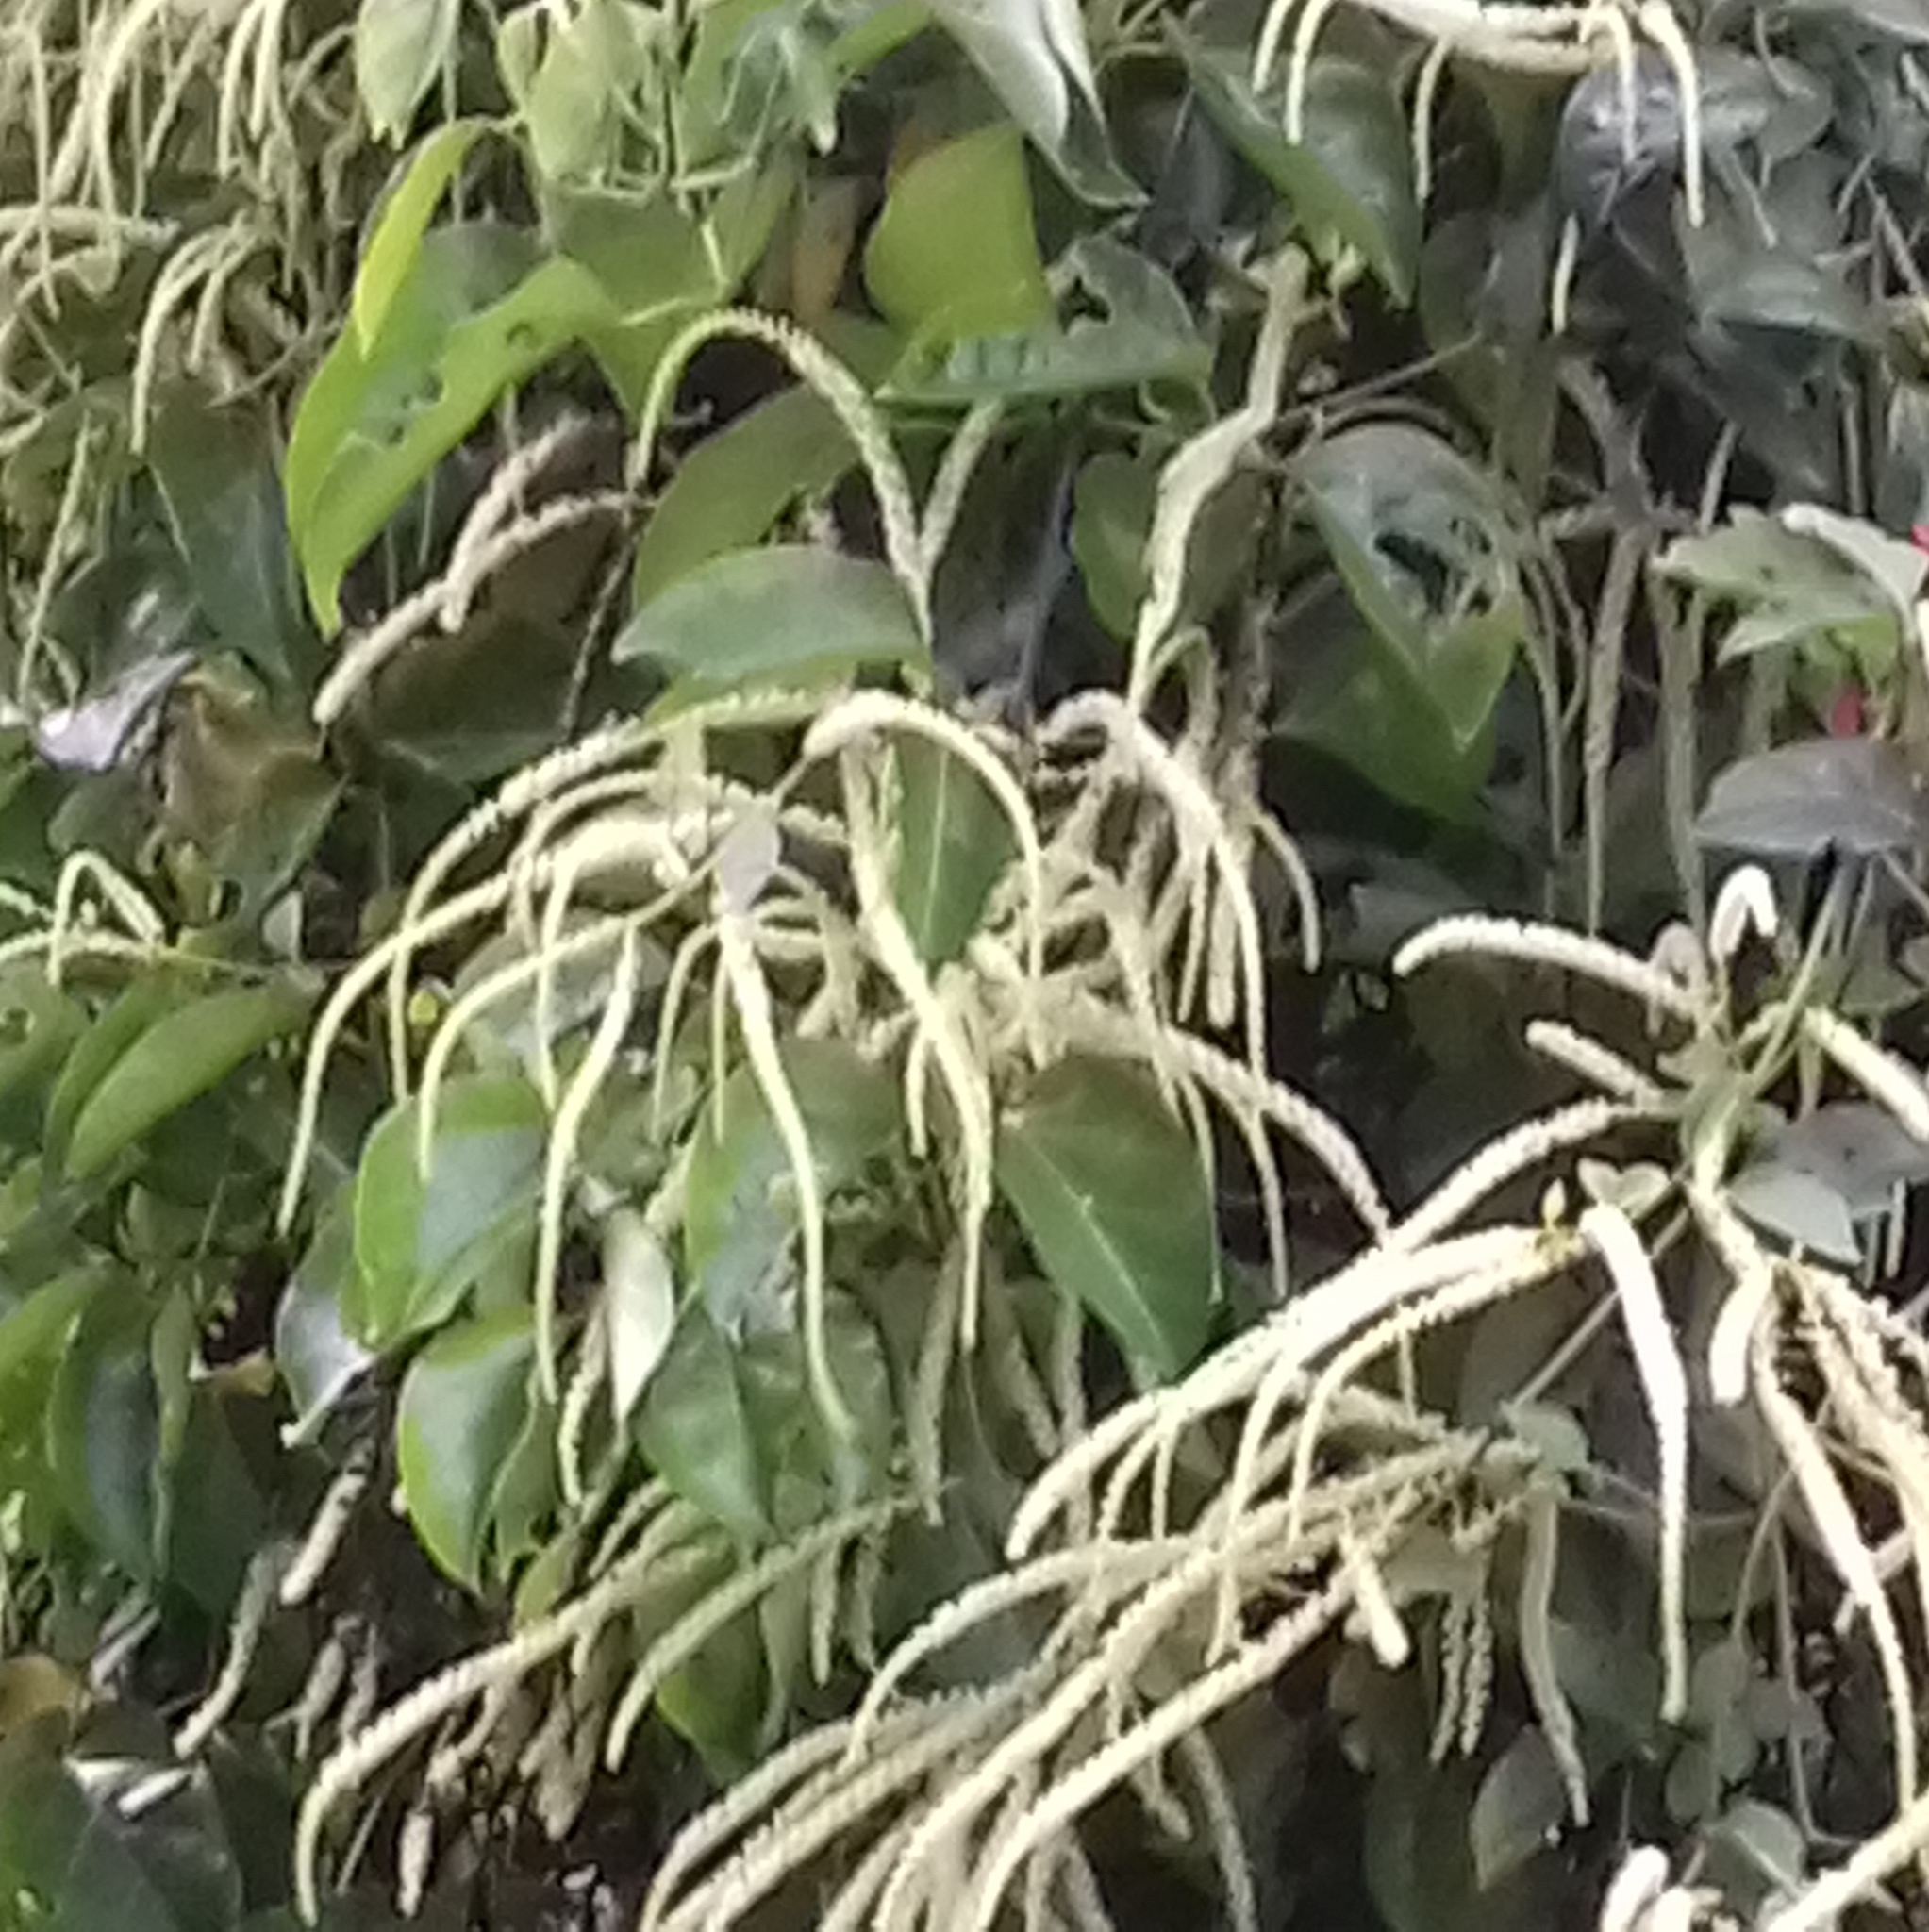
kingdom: Plantae
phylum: Tracheophyta
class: Magnoliopsida
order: Caryophyllales
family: Basellaceae
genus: Anredera
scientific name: Anredera cordifolia
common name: Heartleaf madeiravine
